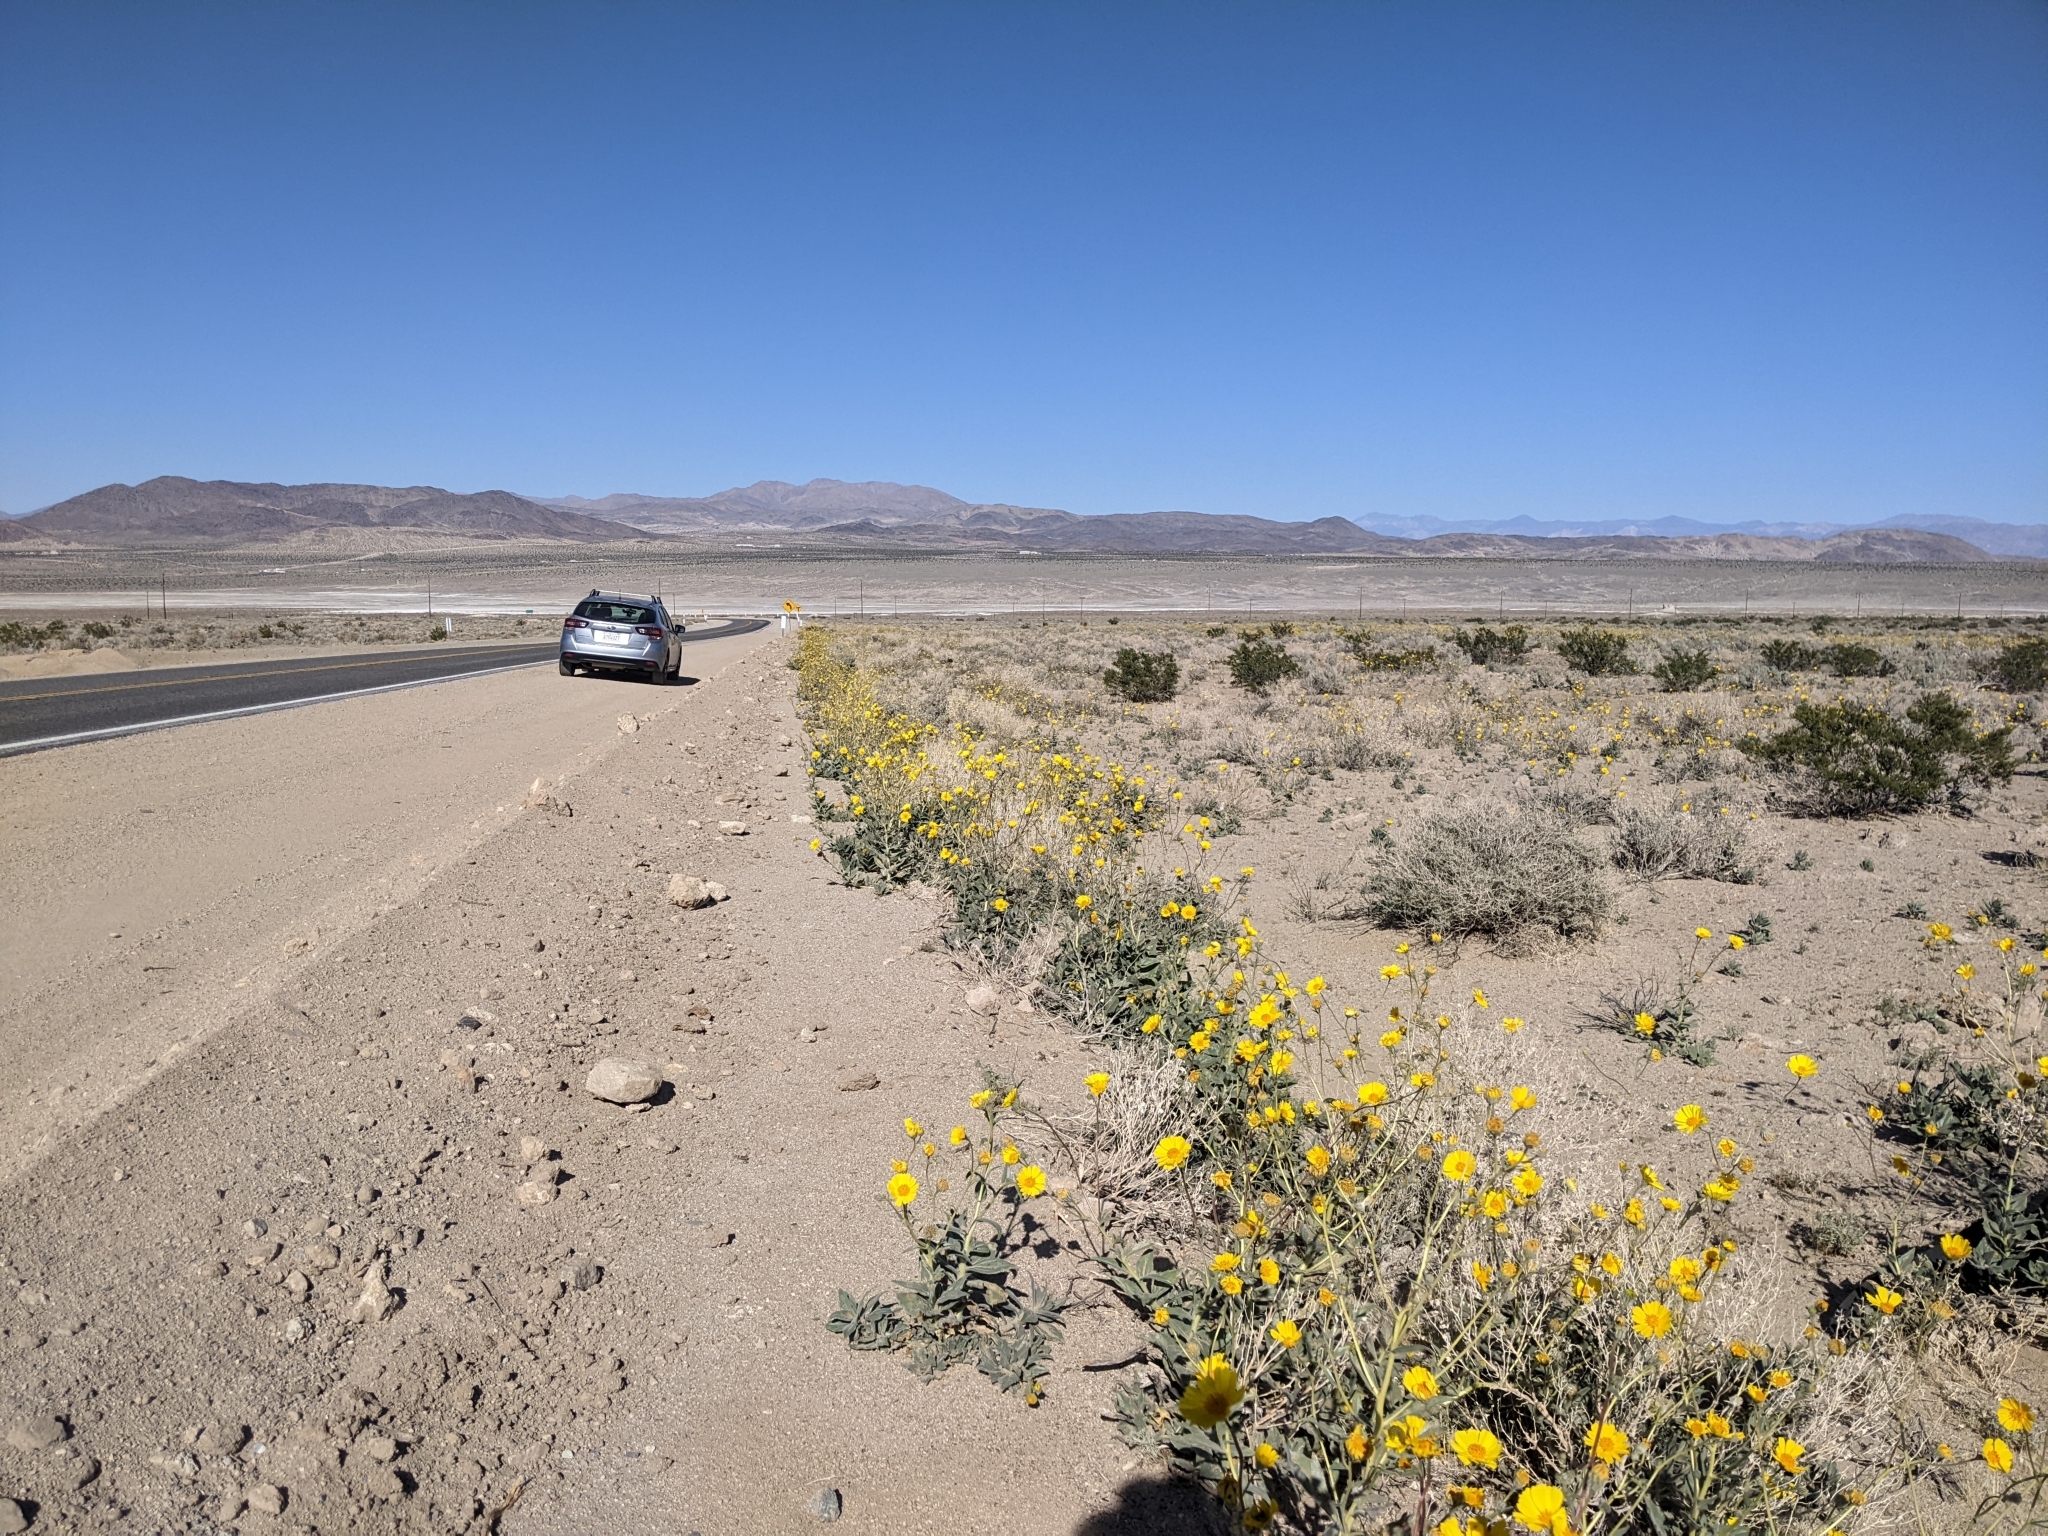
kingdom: Plantae
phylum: Tracheophyta
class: Magnoliopsida
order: Asterales
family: Asteraceae
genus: Geraea
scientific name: Geraea canescens
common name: Desert-gold
